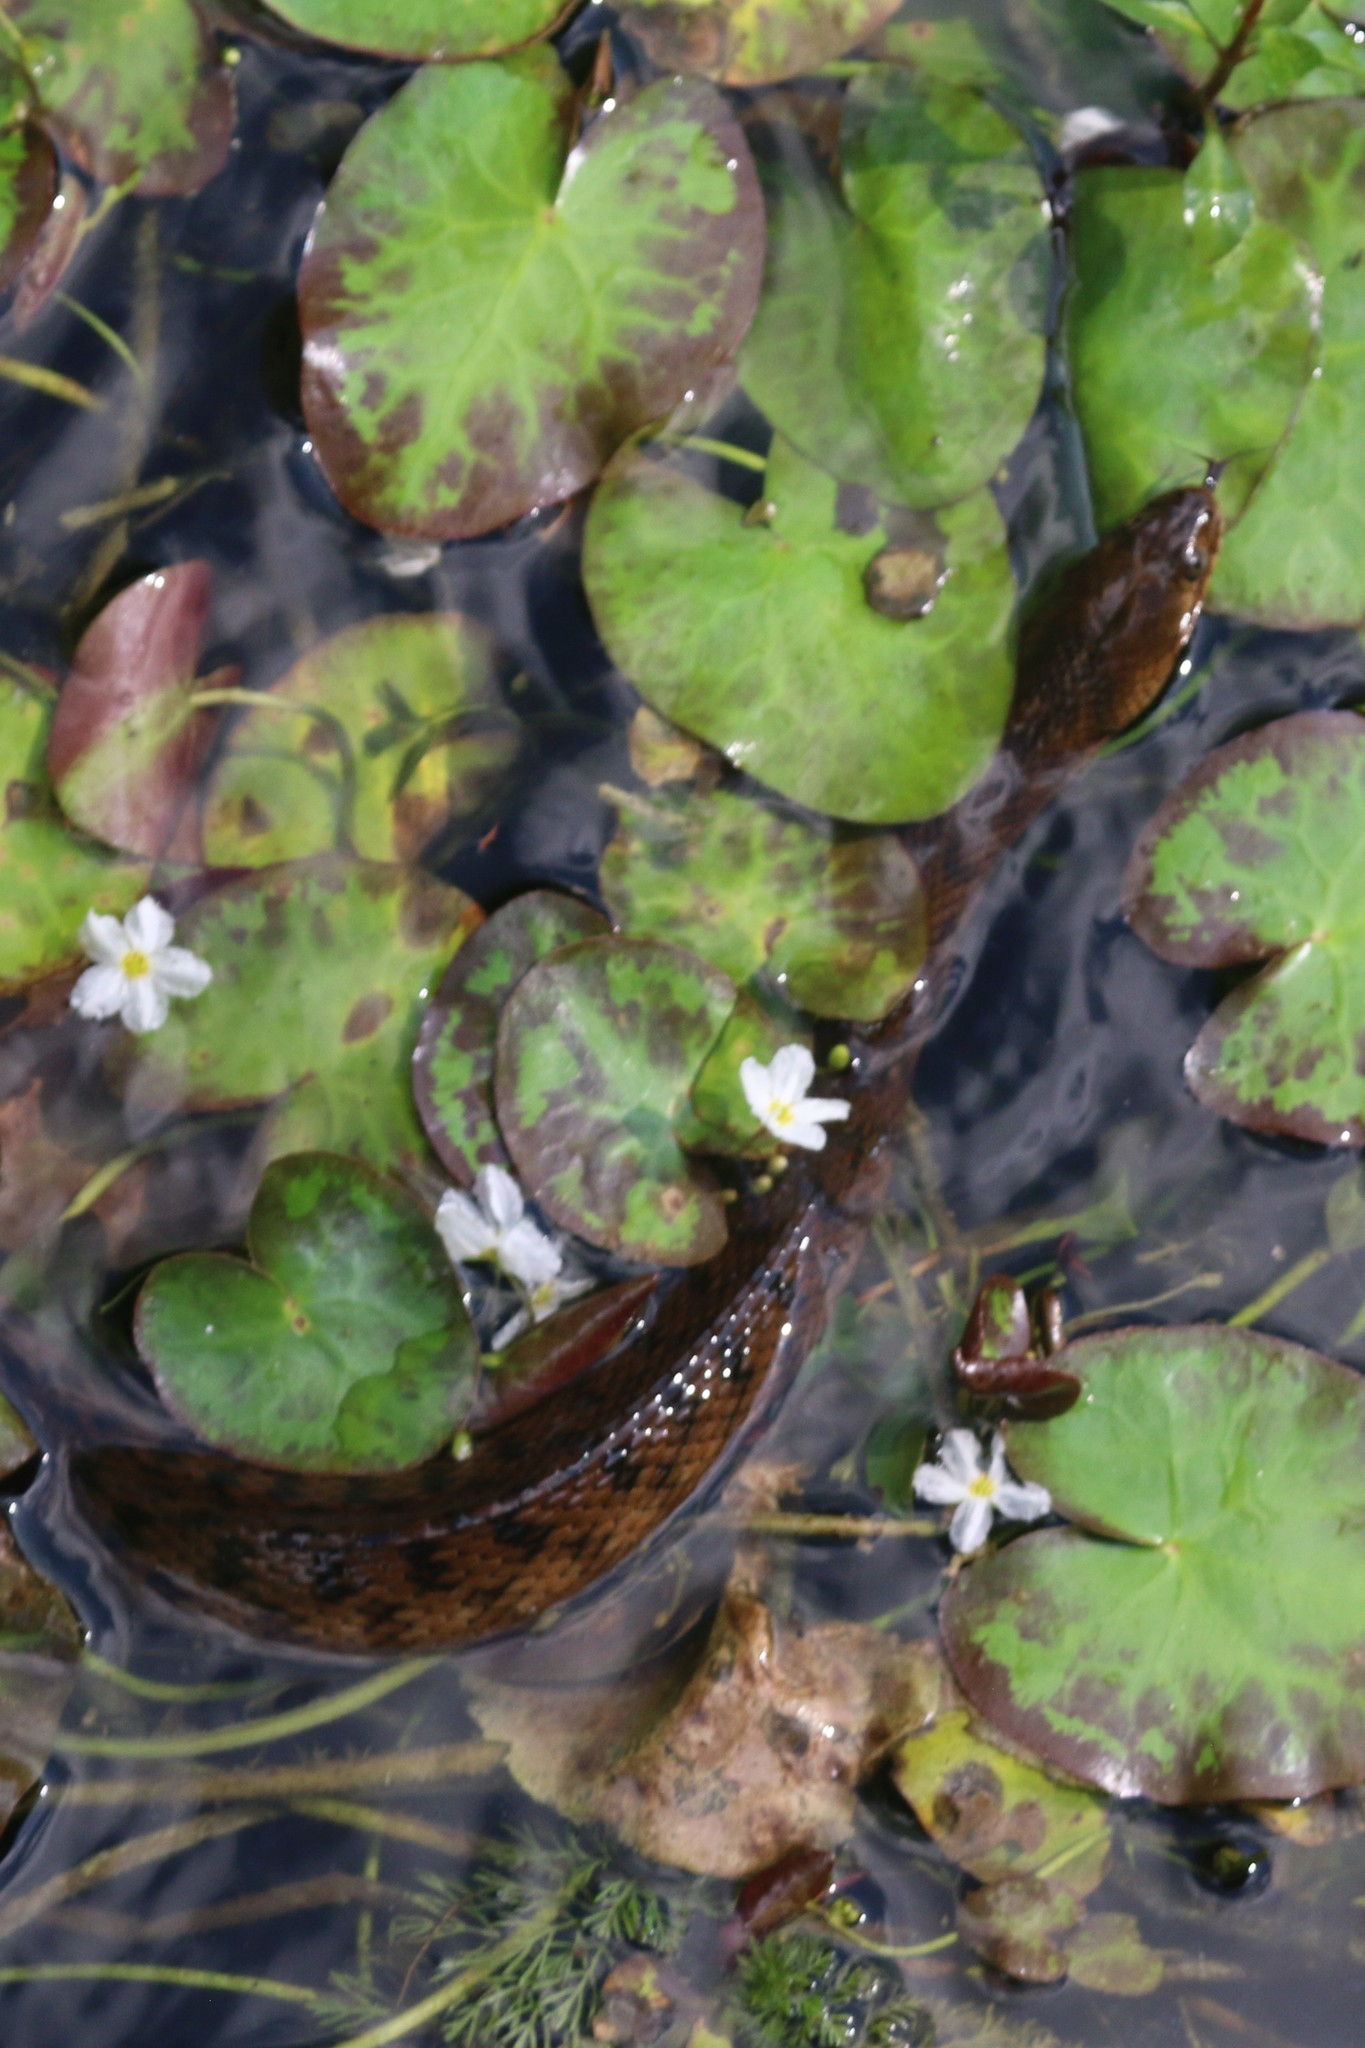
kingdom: Animalia
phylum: Chordata
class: Squamata
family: Colubridae
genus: Nerodia
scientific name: Nerodia floridana
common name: Florida green watersnake
